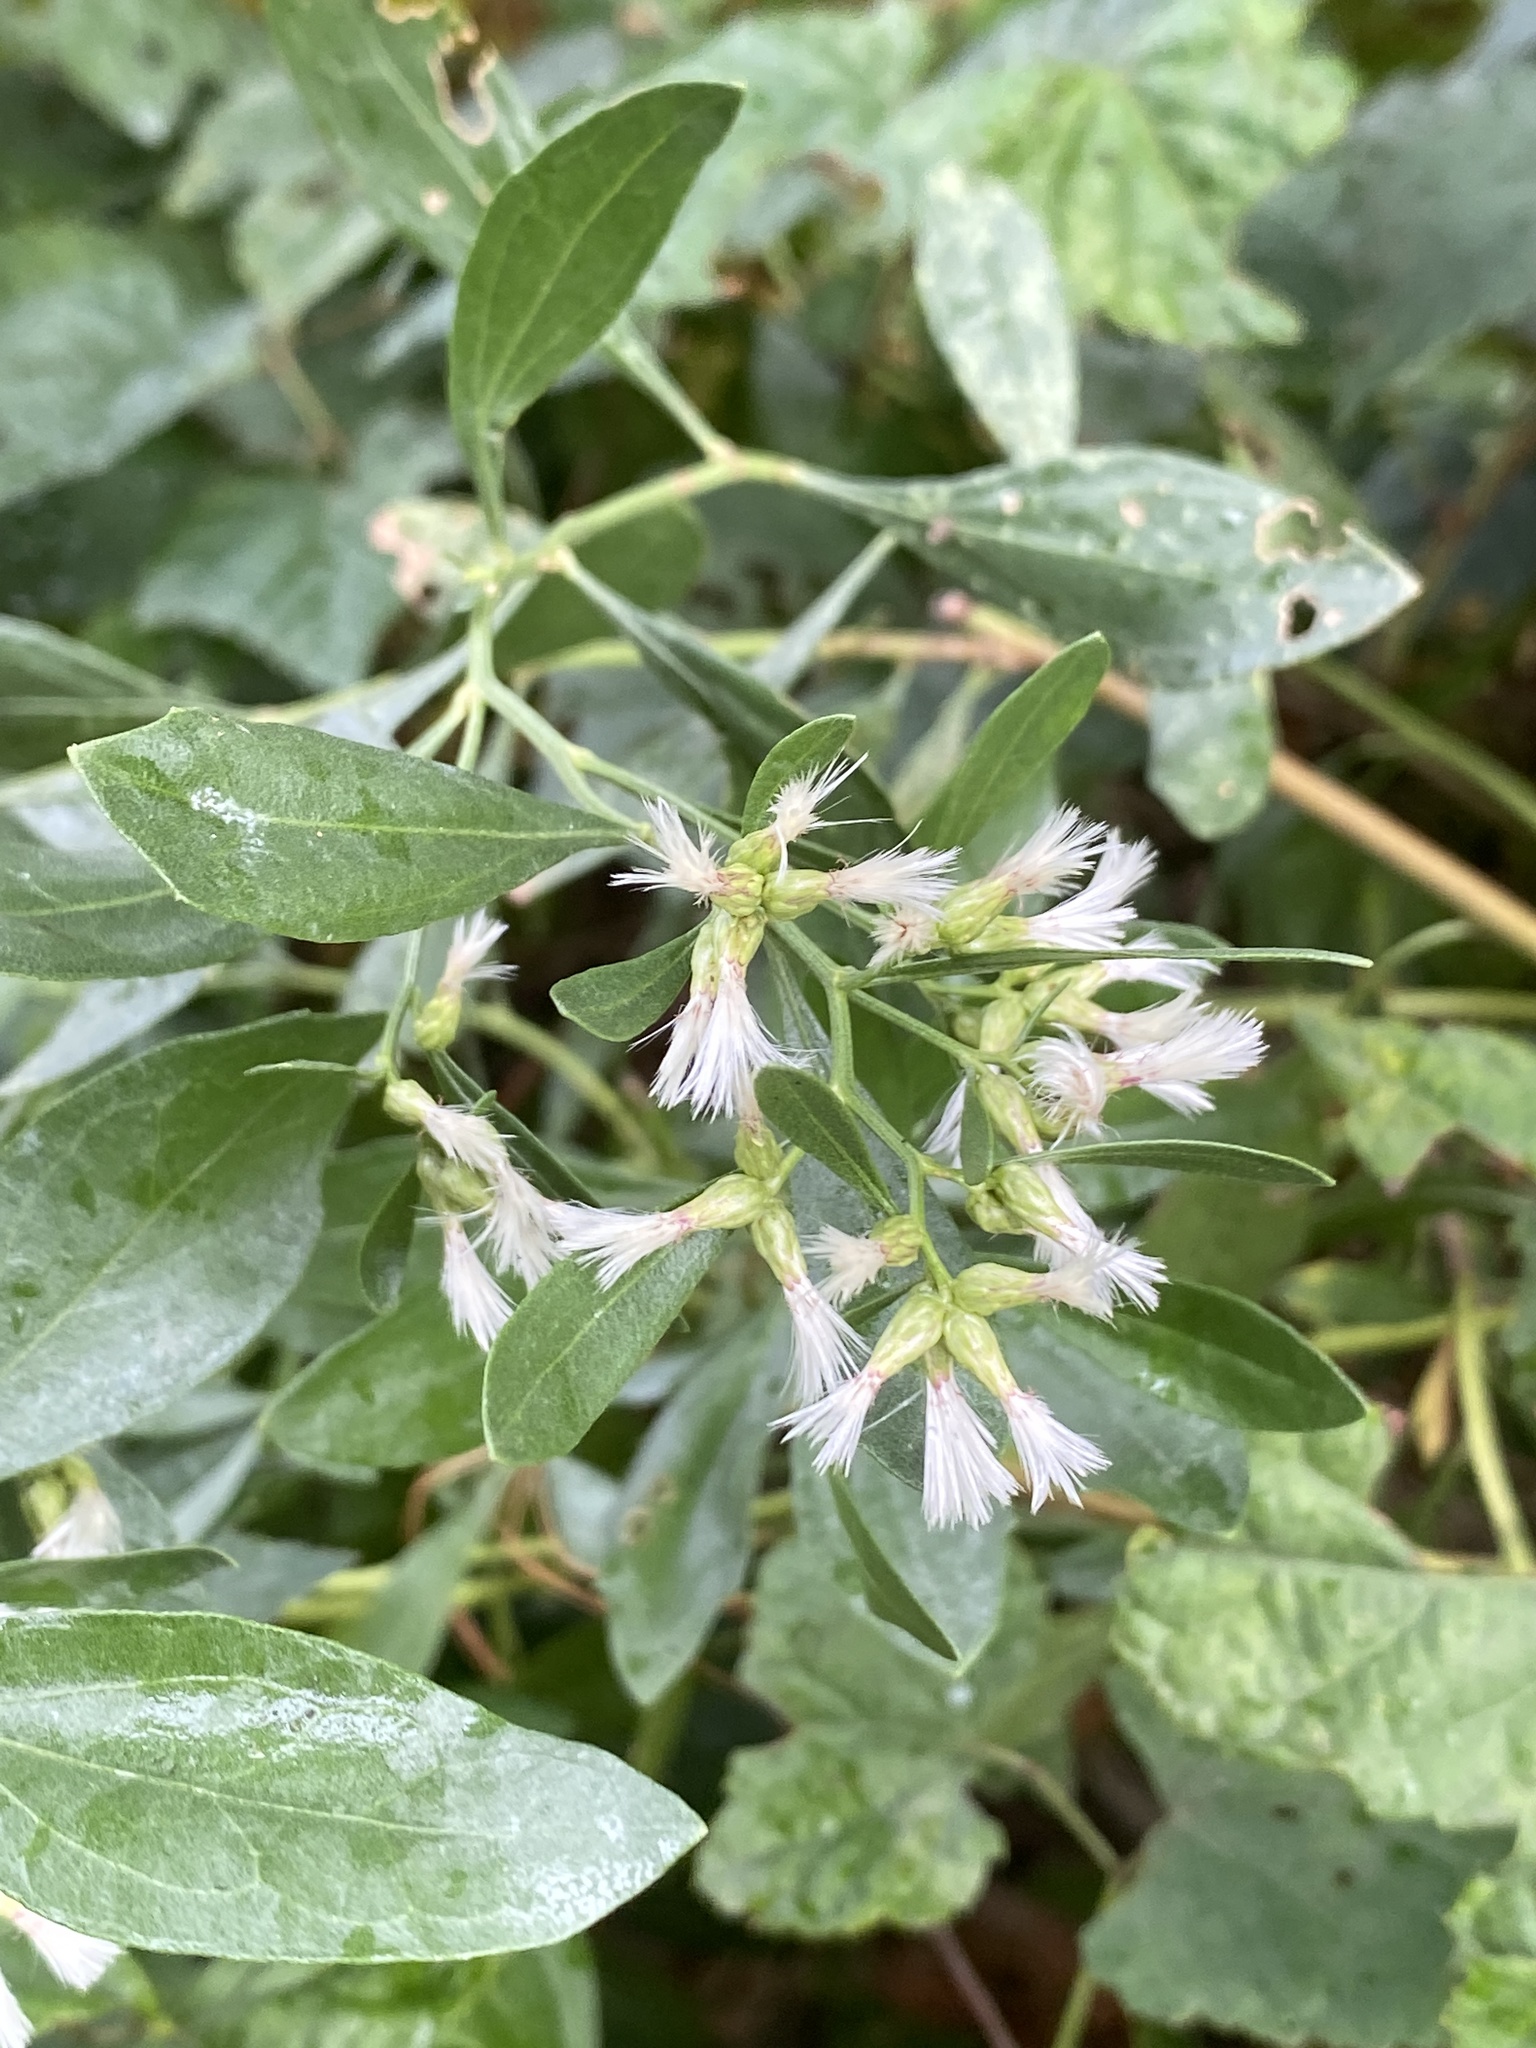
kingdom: Plantae
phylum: Tracheophyta
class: Magnoliopsida
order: Asterales
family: Asteraceae
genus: Baccharis
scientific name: Baccharis halimifolia
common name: Eastern baccharis
